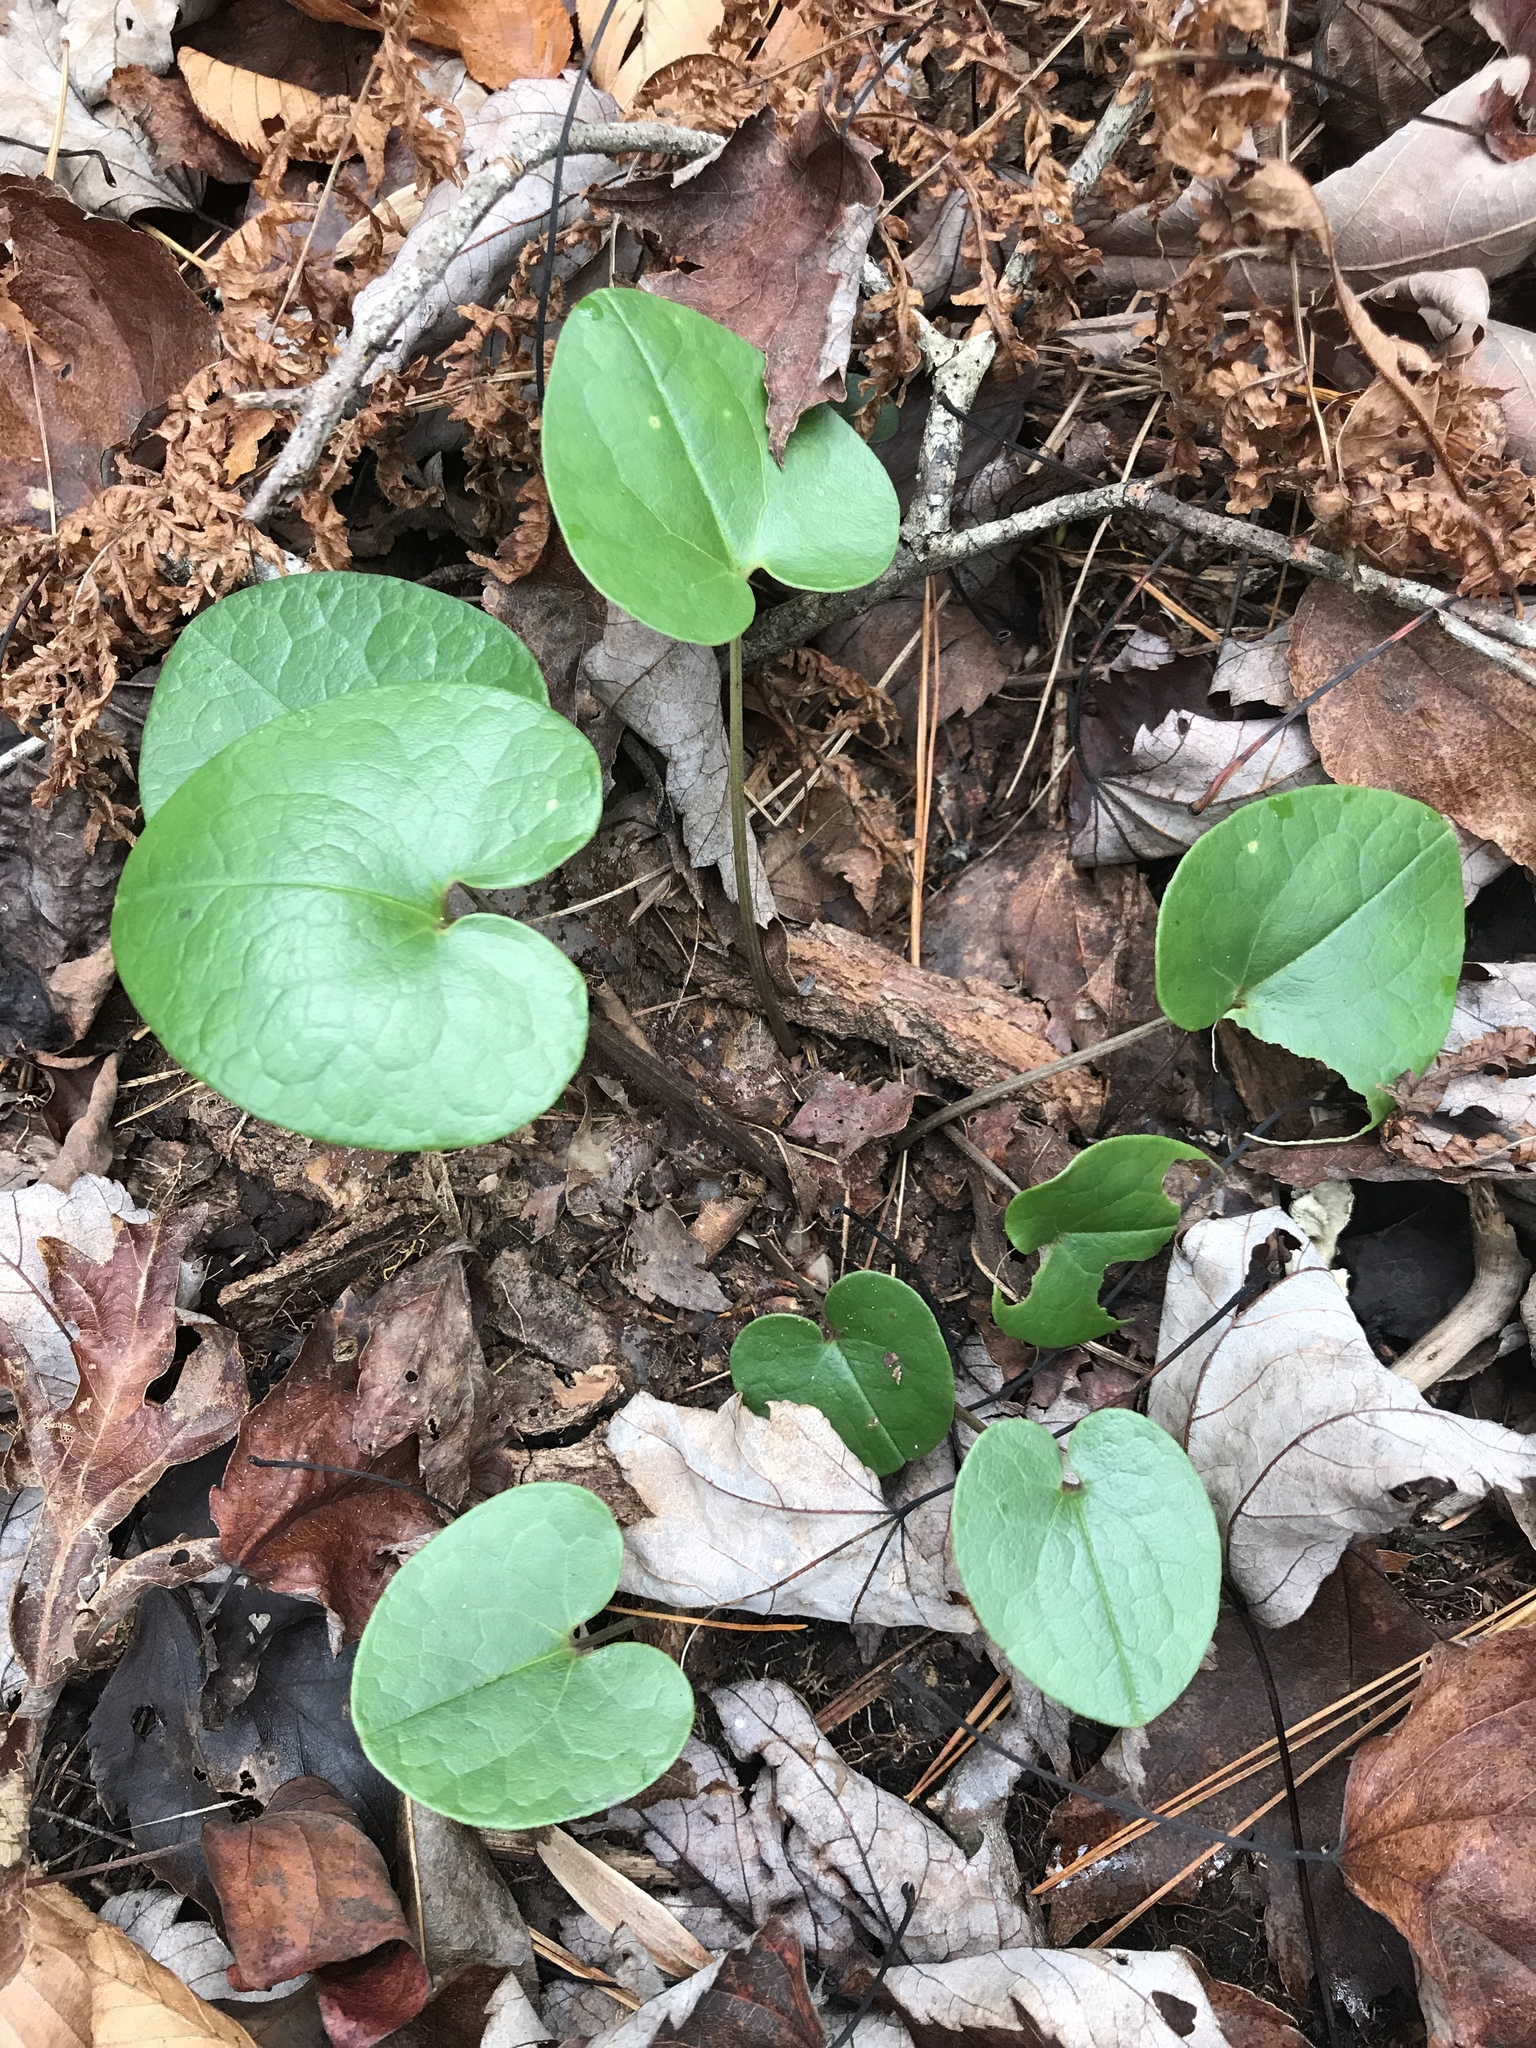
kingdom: Plantae
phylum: Tracheophyta
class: Magnoliopsida
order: Piperales
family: Aristolochiaceae
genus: Hexastylis
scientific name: Hexastylis rhombiformis
